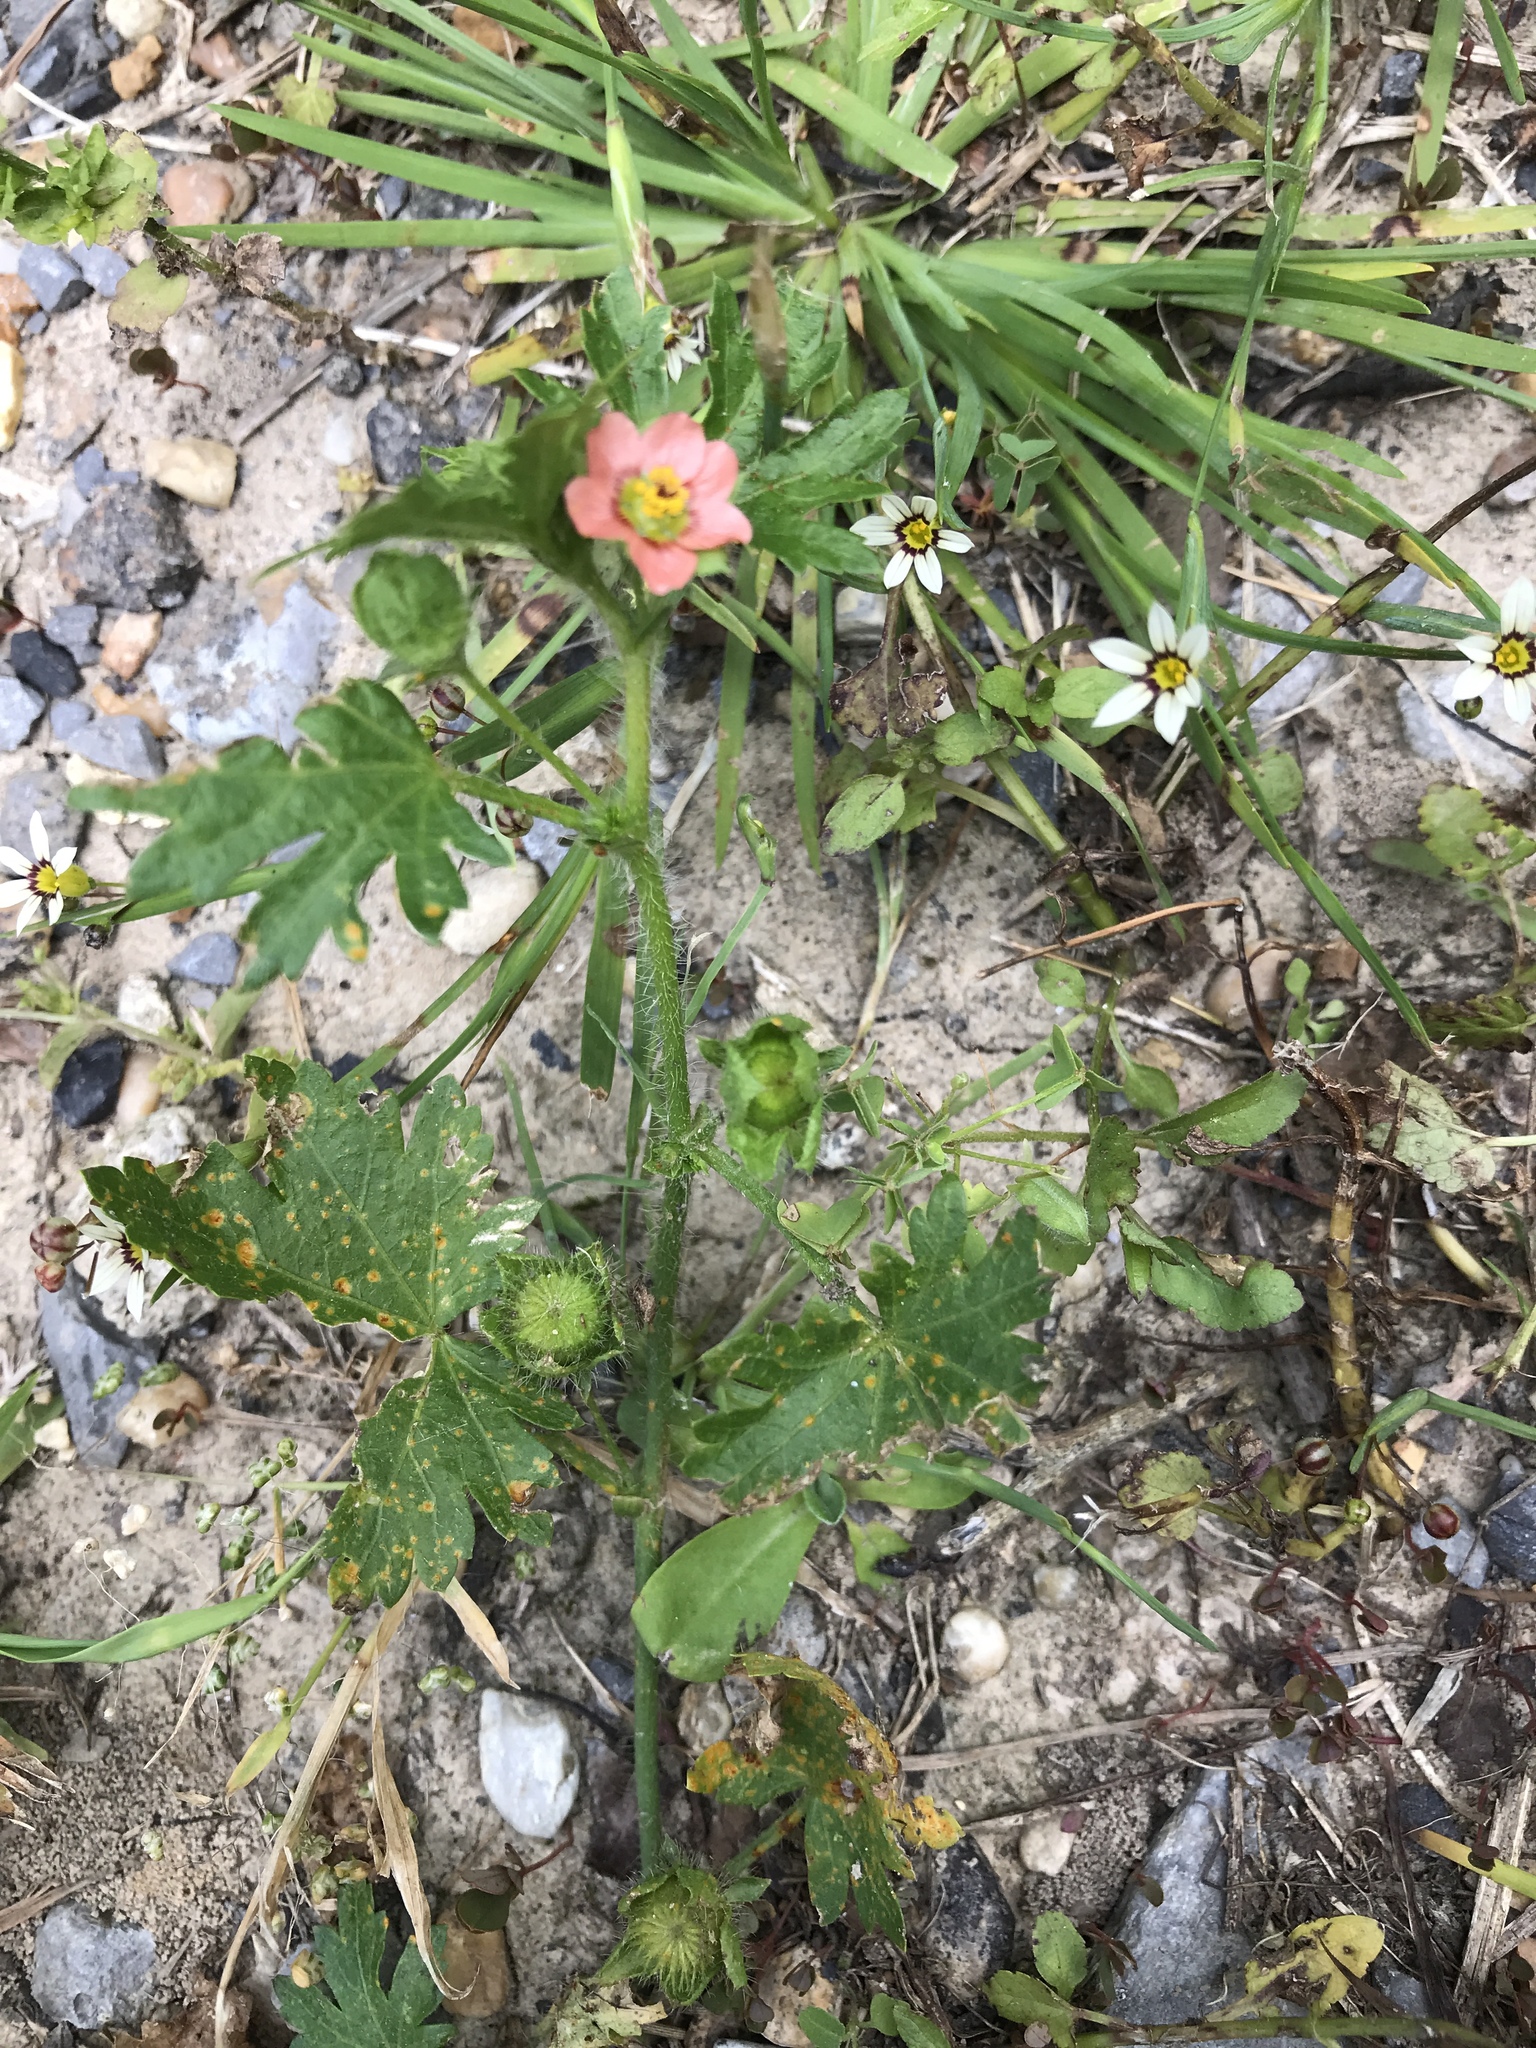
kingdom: Plantae
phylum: Tracheophyta
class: Magnoliopsida
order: Malvales
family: Malvaceae
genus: Modiola
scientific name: Modiola caroliniana
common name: Carolina bristlemallow
